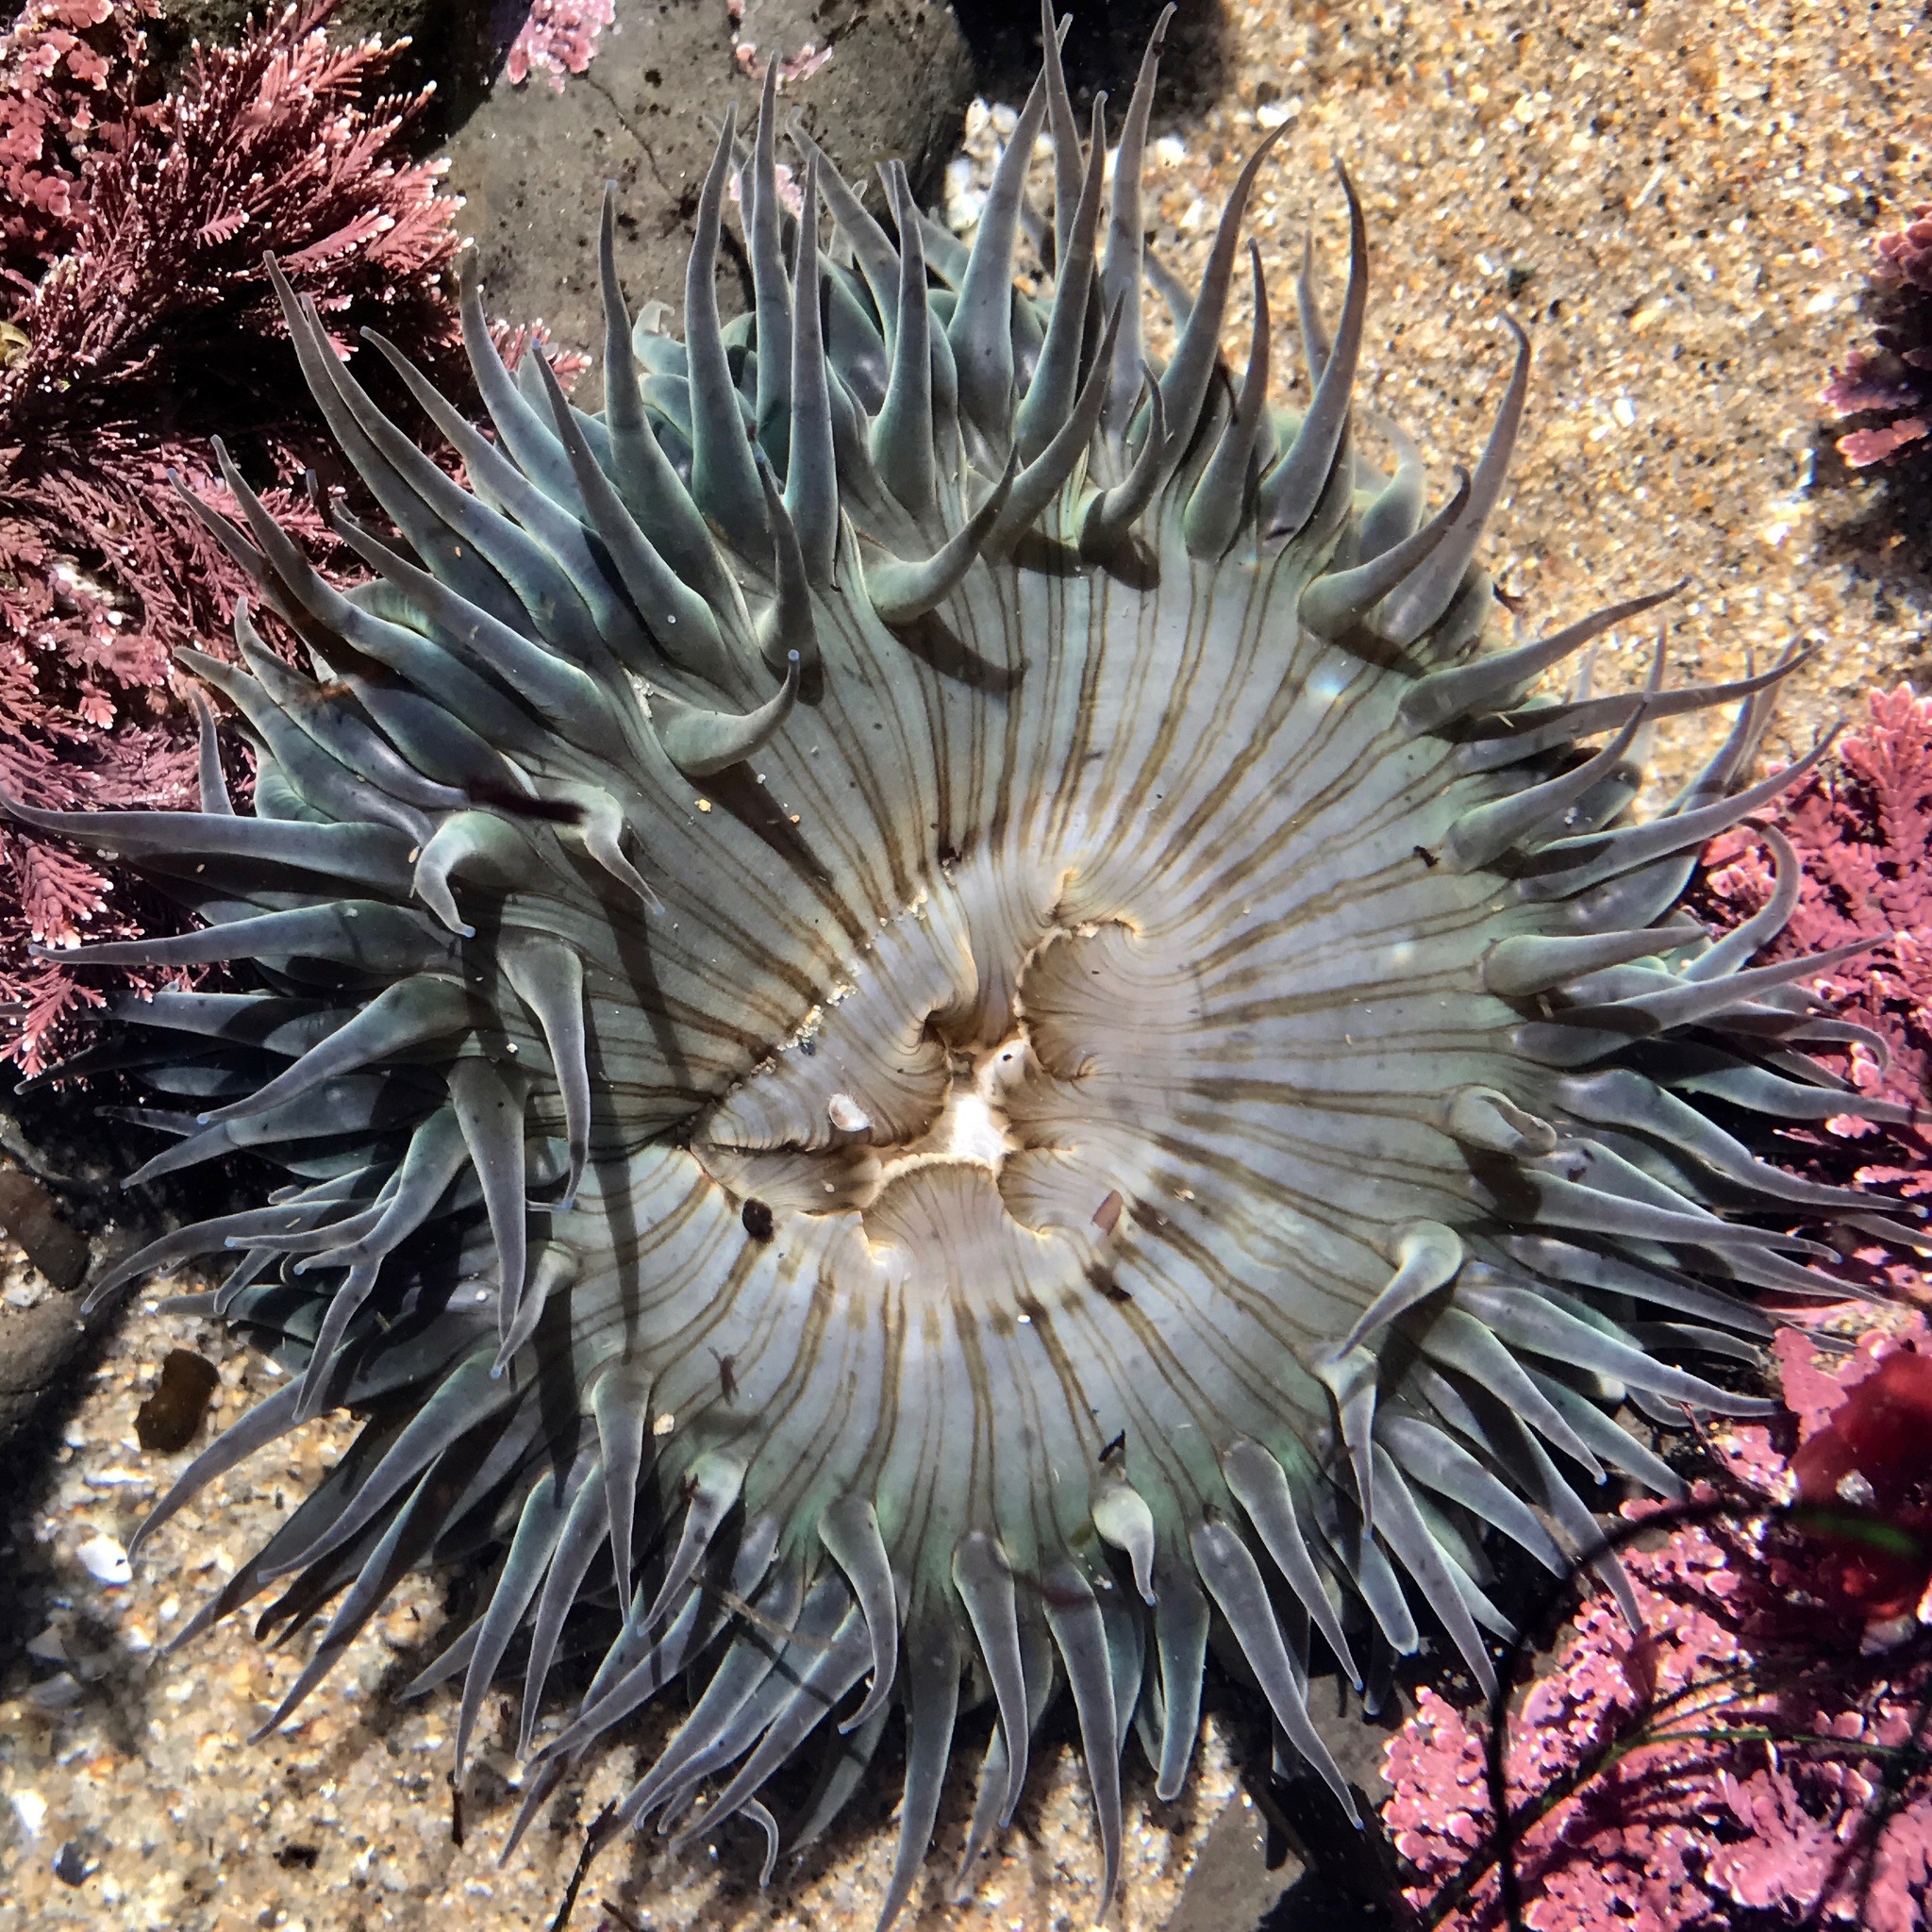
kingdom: Animalia
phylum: Cnidaria
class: Anthozoa
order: Actiniaria
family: Actiniidae
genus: Anthopleura
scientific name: Anthopleura sola
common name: Sun anemone
